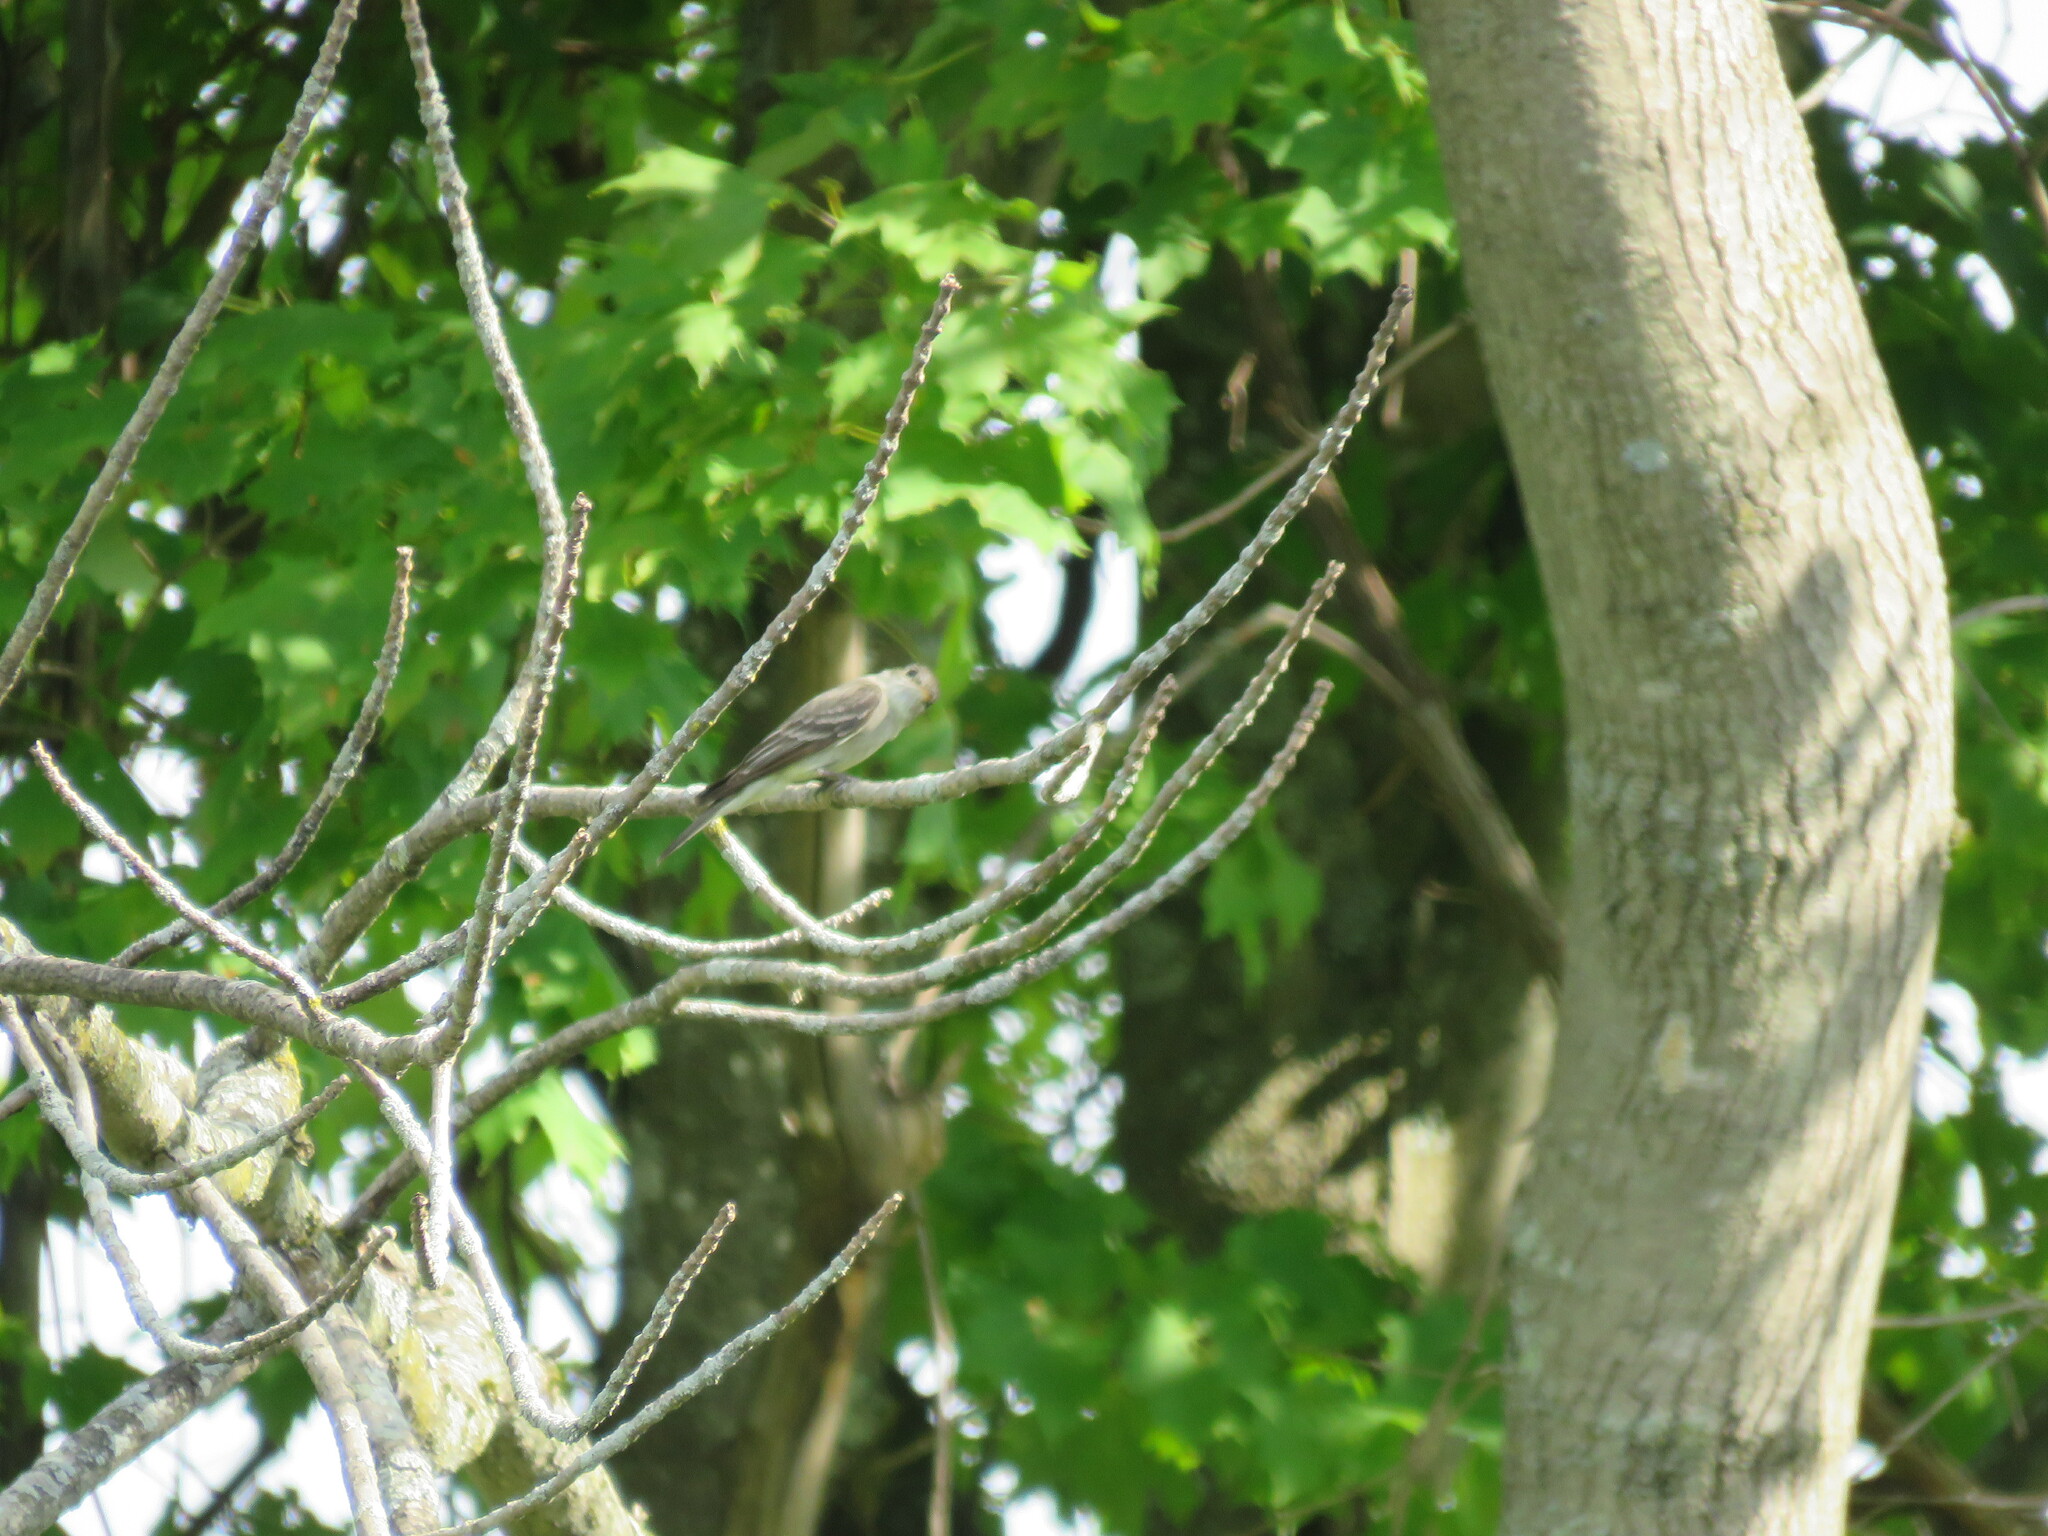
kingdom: Animalia
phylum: Chordata
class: Aves
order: Passeriformes
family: Tyrannidae
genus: Contopus
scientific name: Contopus virens
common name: Eastern wood-pewee
